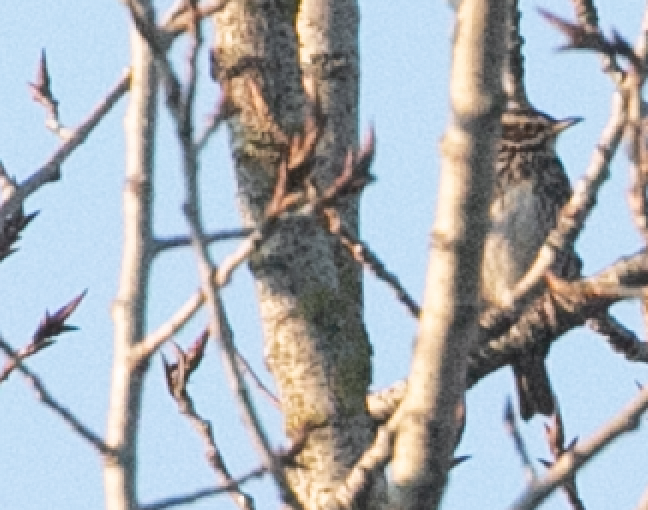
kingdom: Animalia
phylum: Chordata
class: Aves
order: Passeriformes
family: Turdidae
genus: Turdus
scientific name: Turdus iliacus
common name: Redwing
